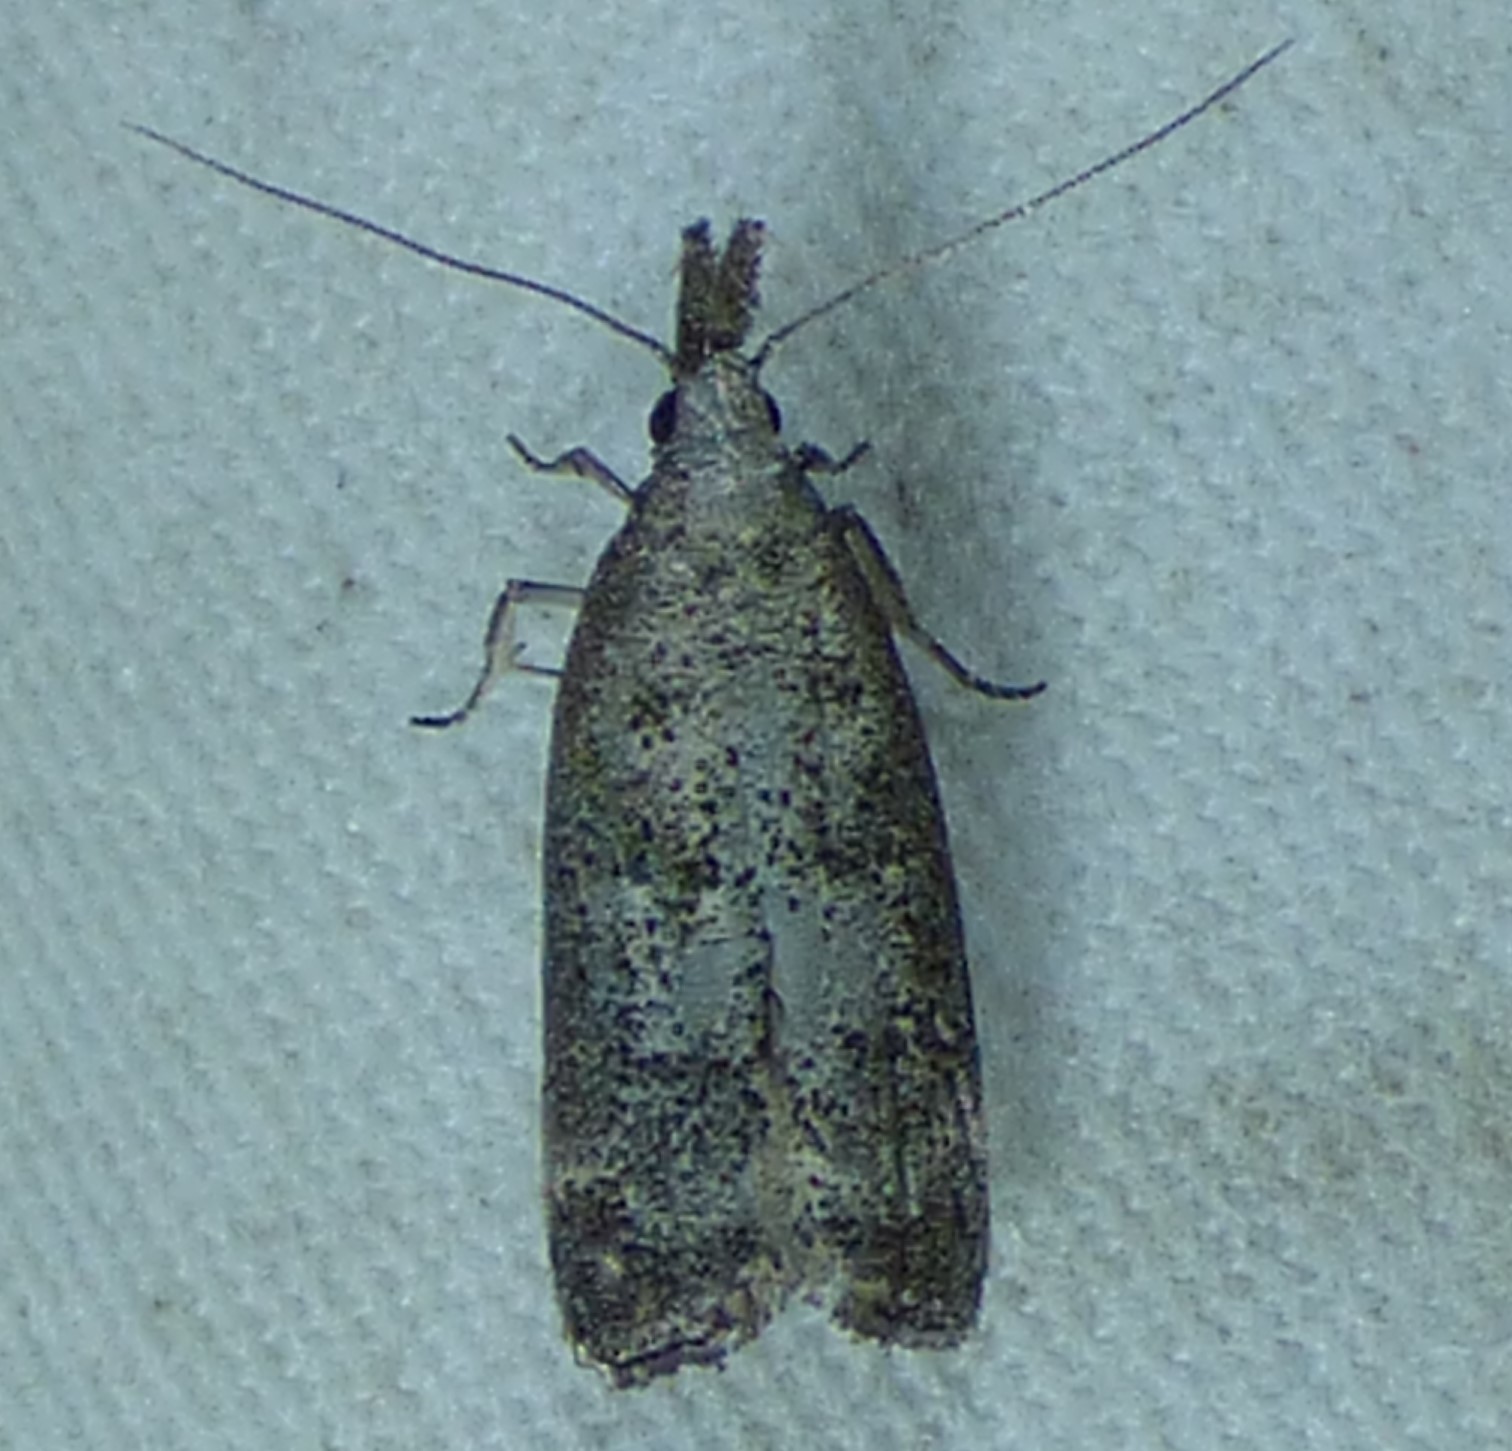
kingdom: Animalia
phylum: Arthropoda
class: Insecta
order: Lepidoptera
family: Gelechiidae
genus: Dichomeris
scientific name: Dichomeris inversella
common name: Inverse dichomeris moth
